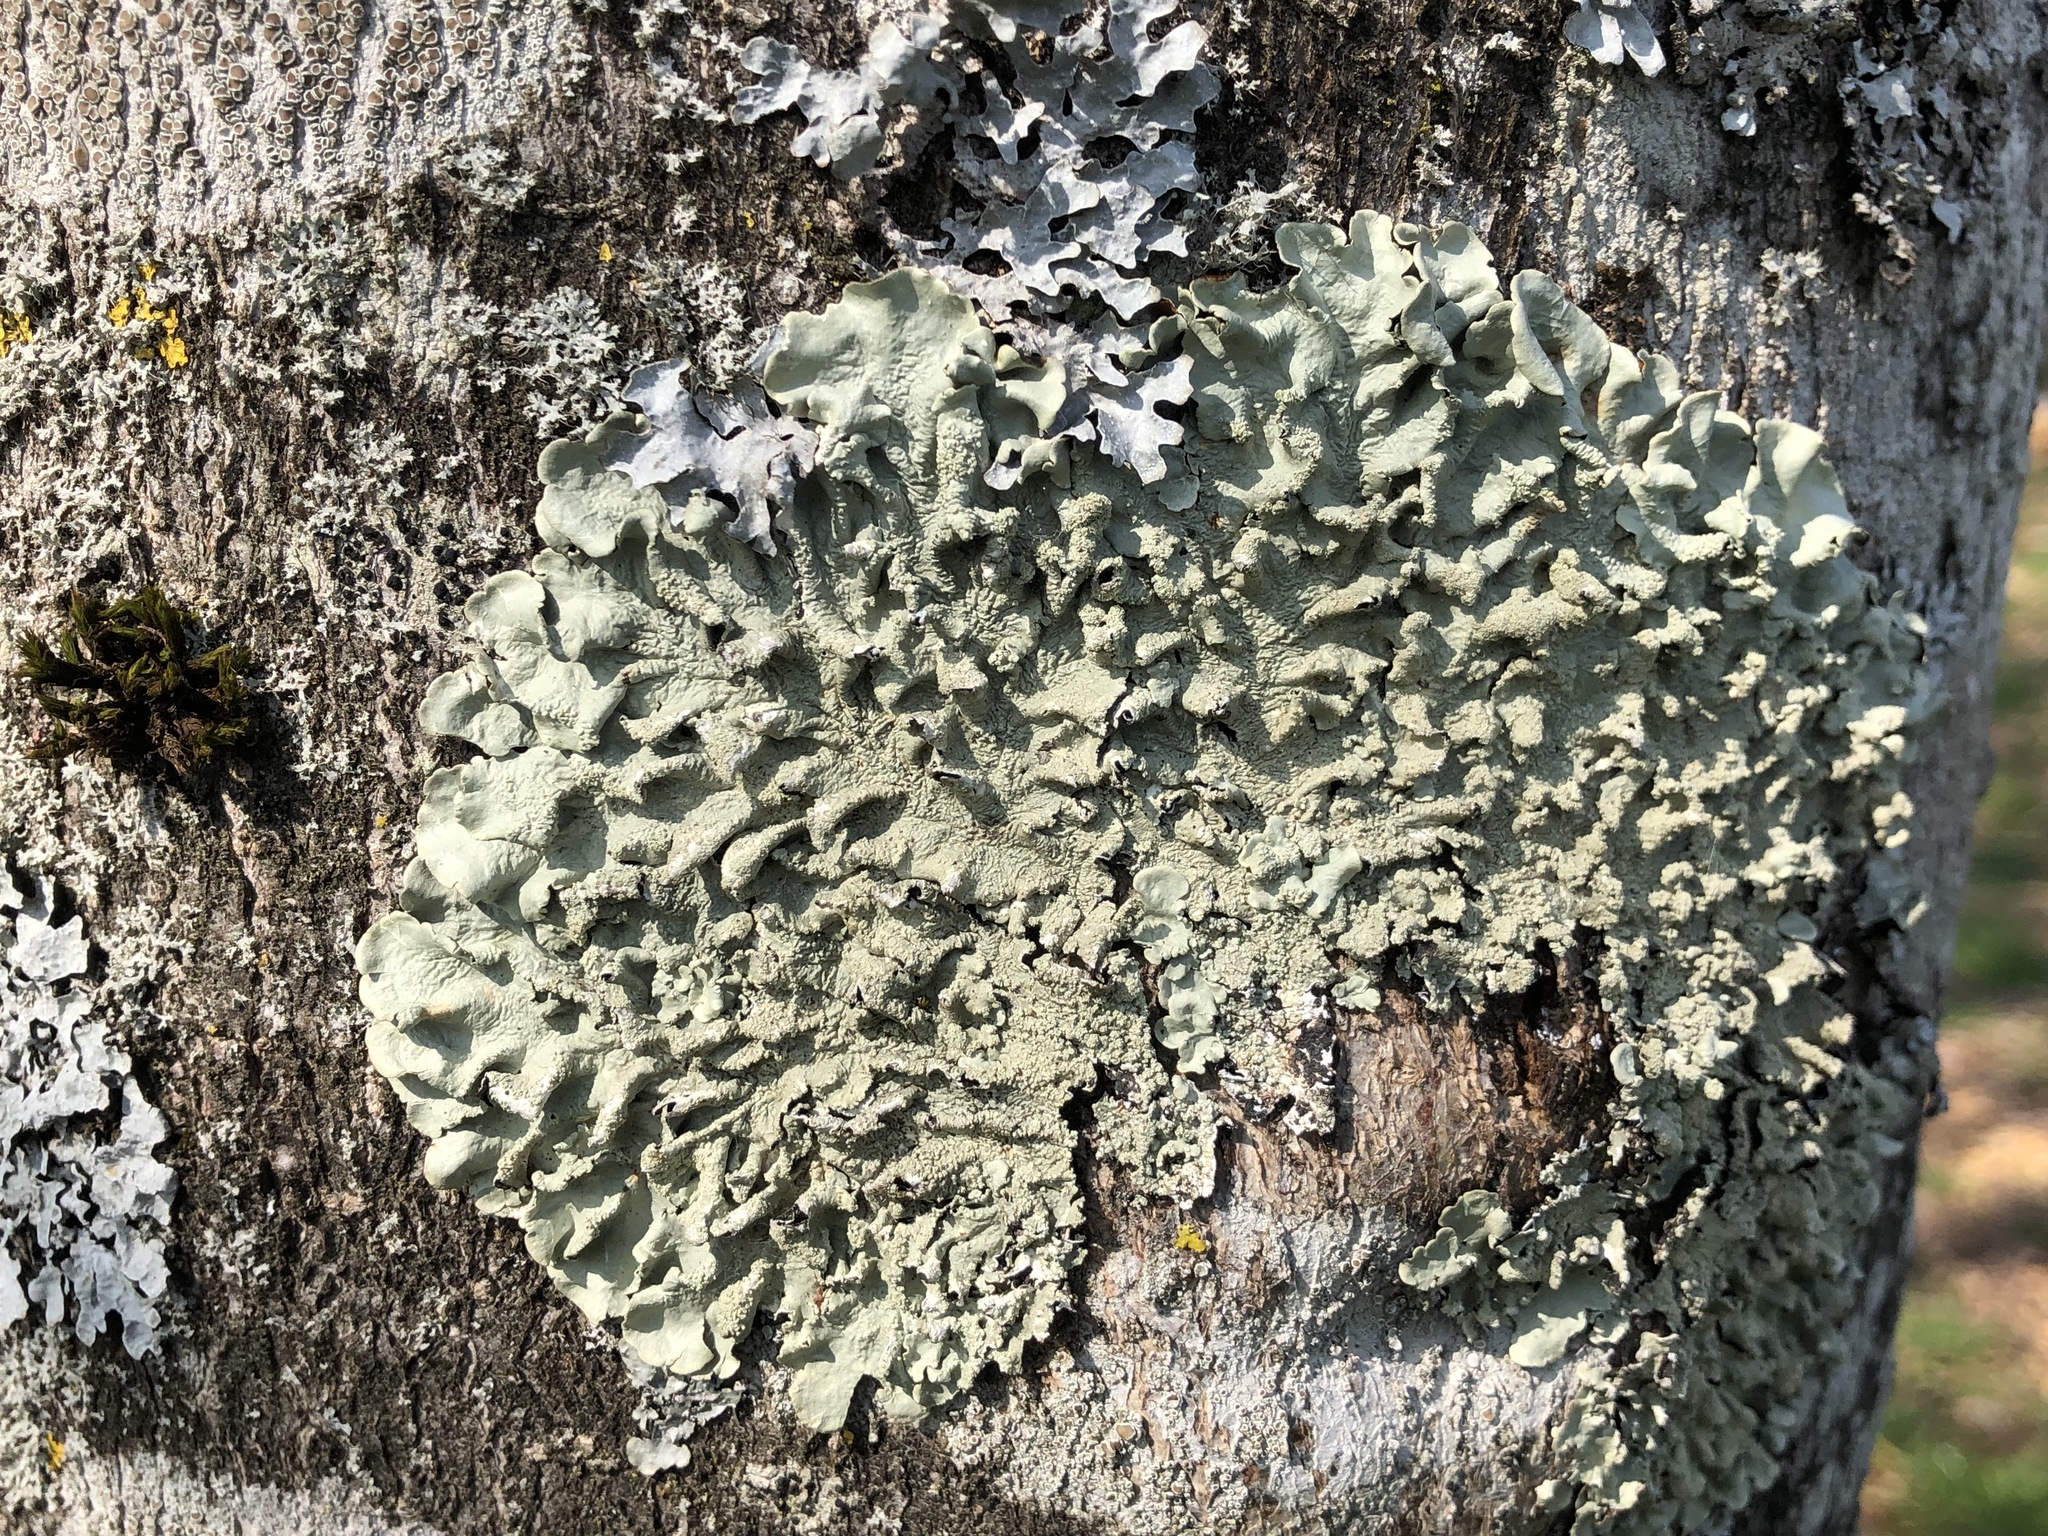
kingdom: Fungi
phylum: Ascomycota
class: Lecanoromycetes
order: Lecanorales
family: Parmeliaceae
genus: Flavoparmelia
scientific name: Flavoparmelia caperata
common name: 40-mile per hour lichen
